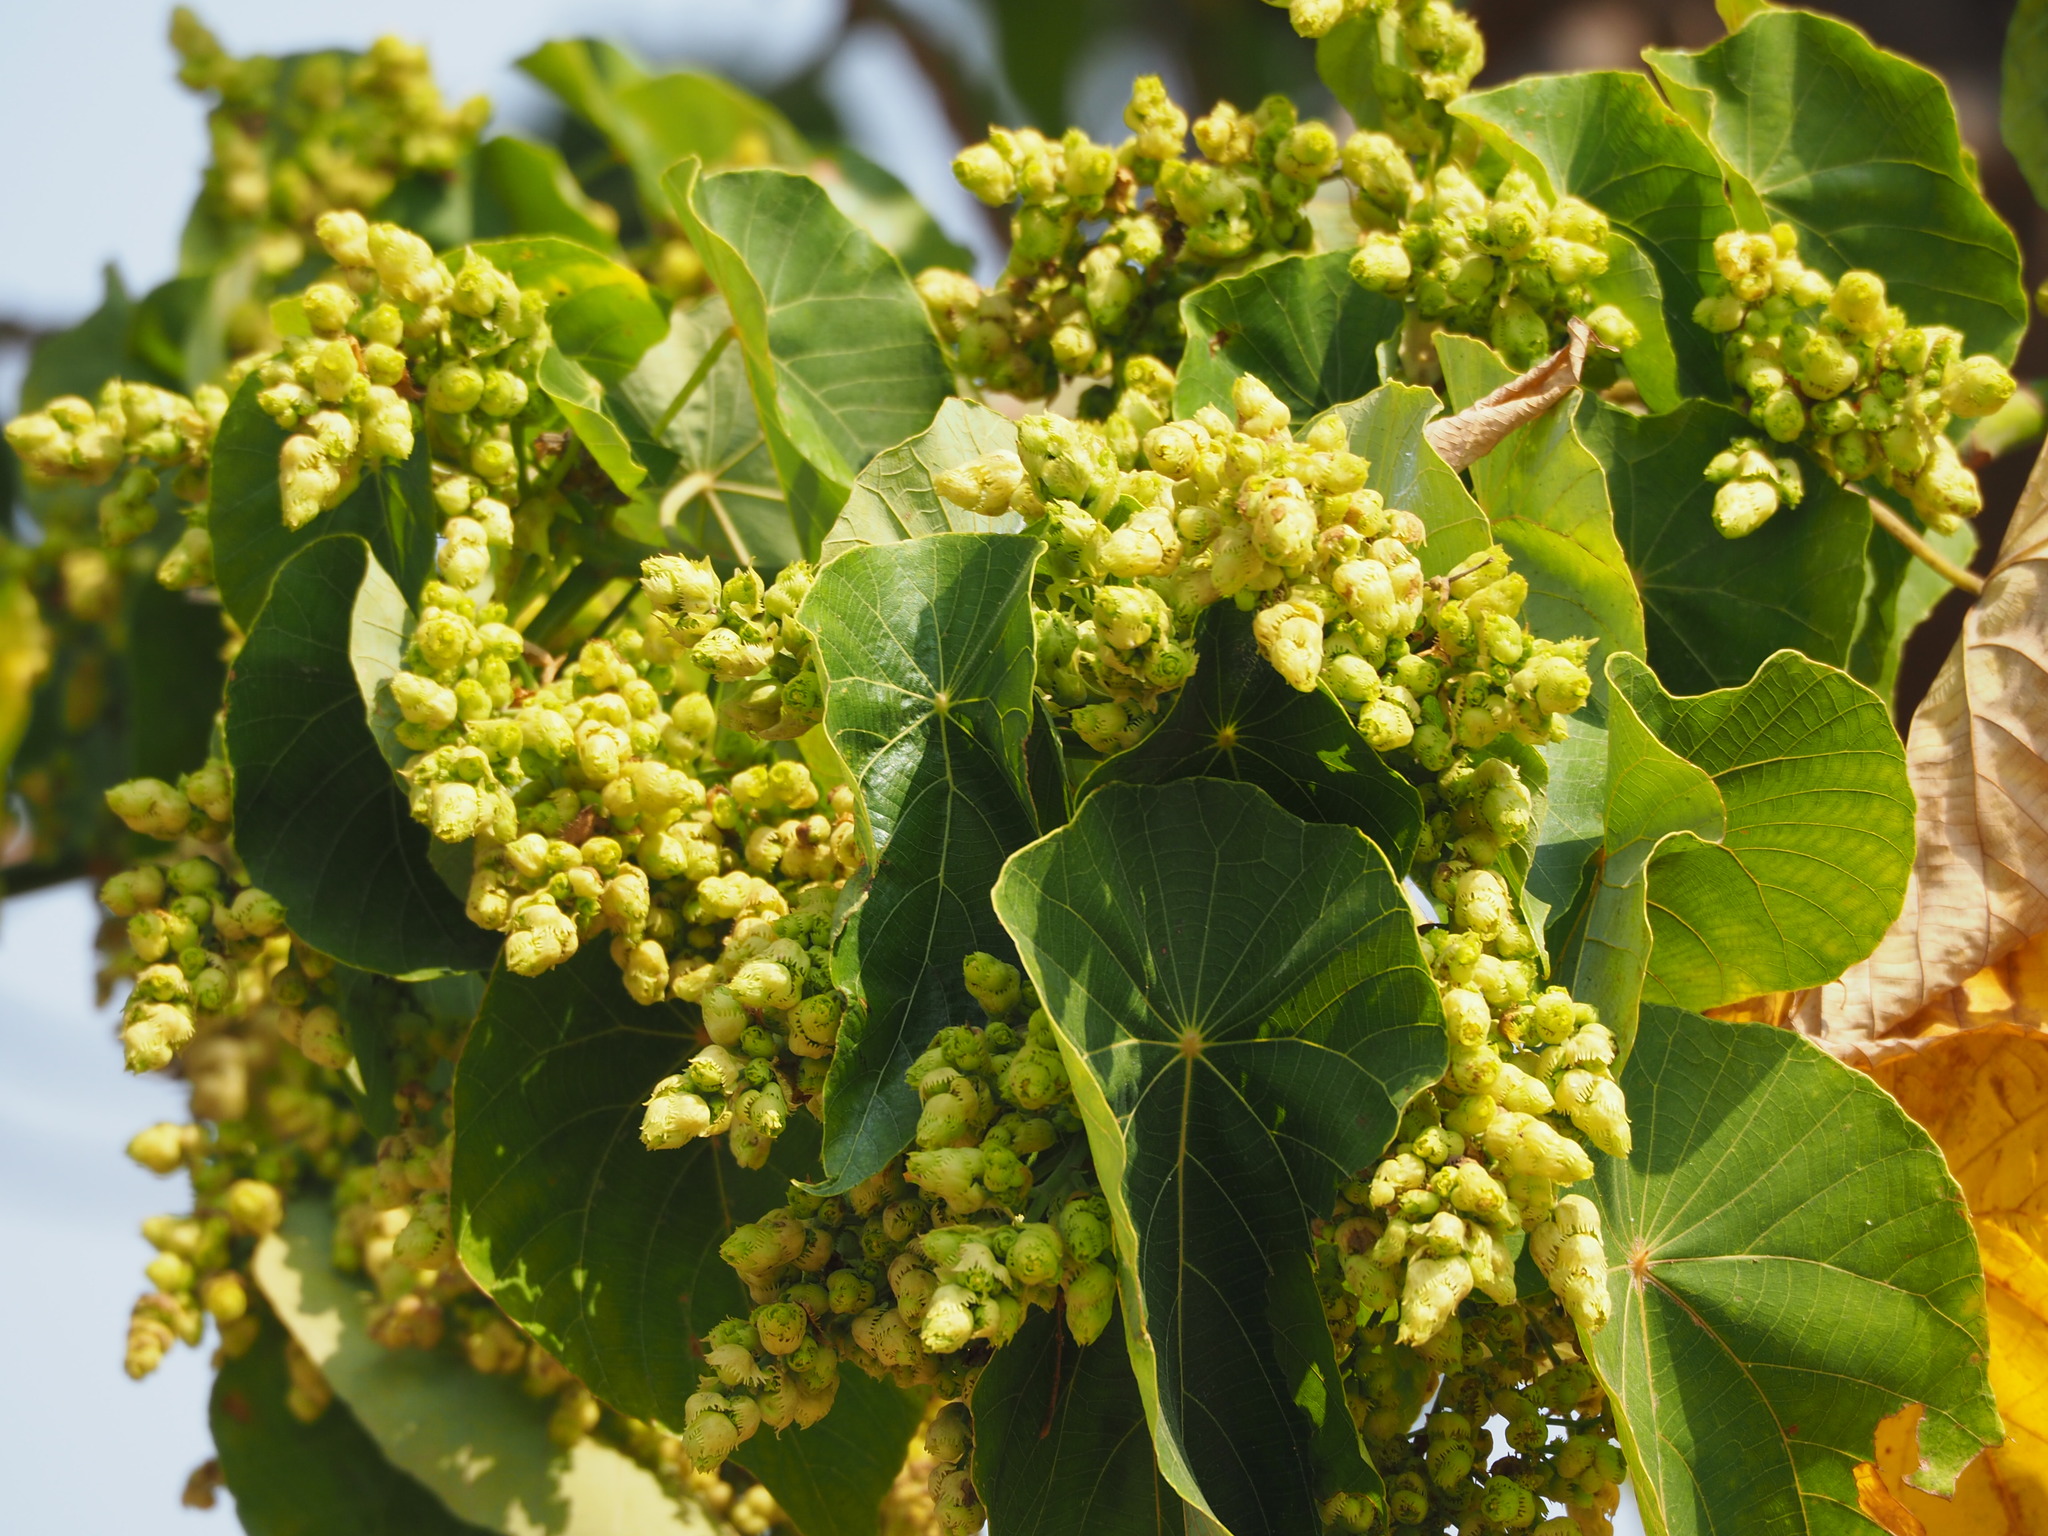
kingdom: Plantae
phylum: Tracheophyta
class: Magnoliopsida
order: Malpighiales
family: Euphorbiaceae
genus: Macaranga
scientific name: Macaranga tanarius
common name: Parasol leaf tree
